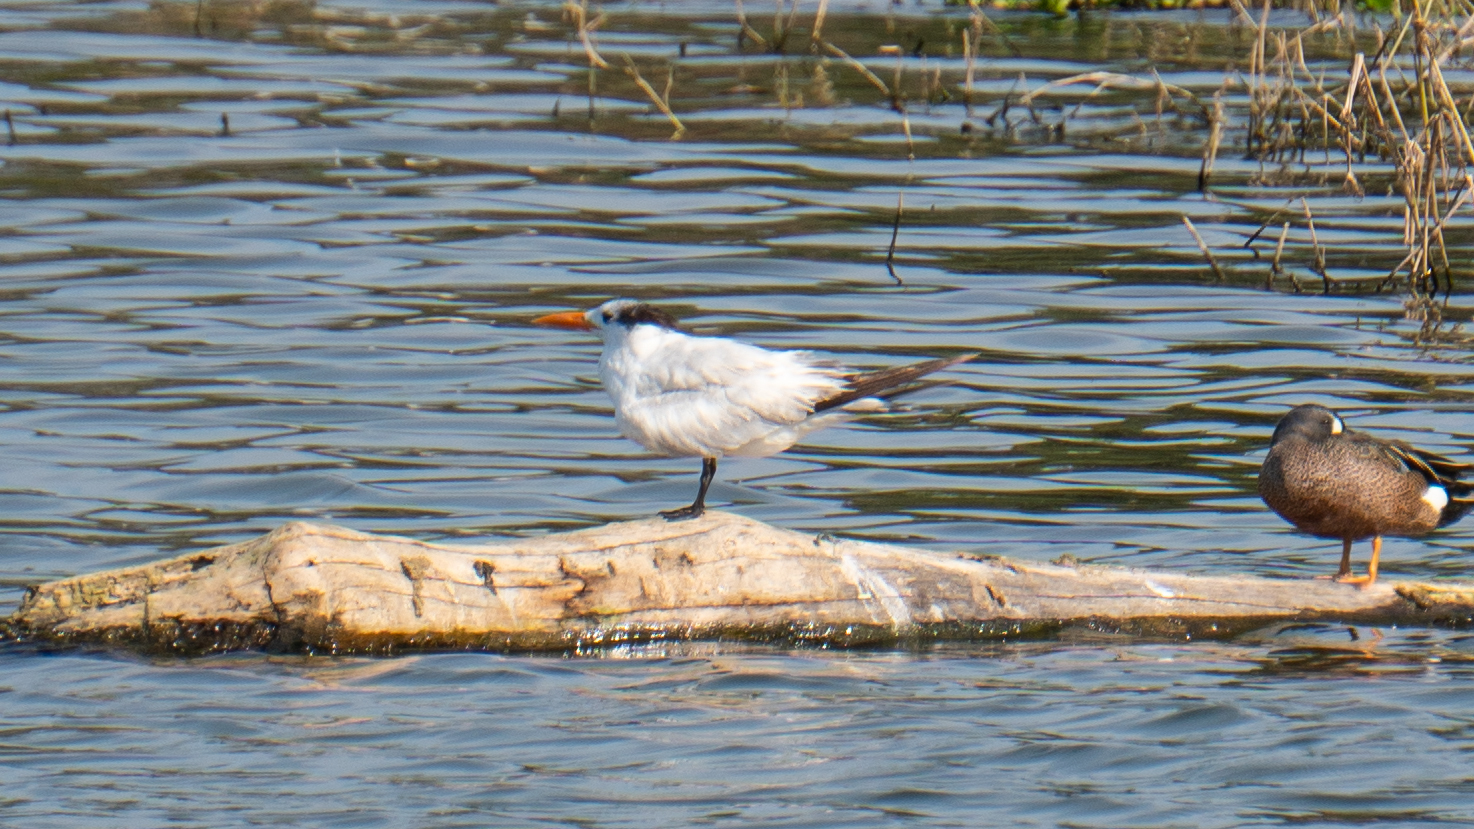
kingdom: Animalia
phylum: Chordata
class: Aves
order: Charadriiformes
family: Laridae
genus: Thalasseus
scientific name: Thalasseus maximus
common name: Royal tern
